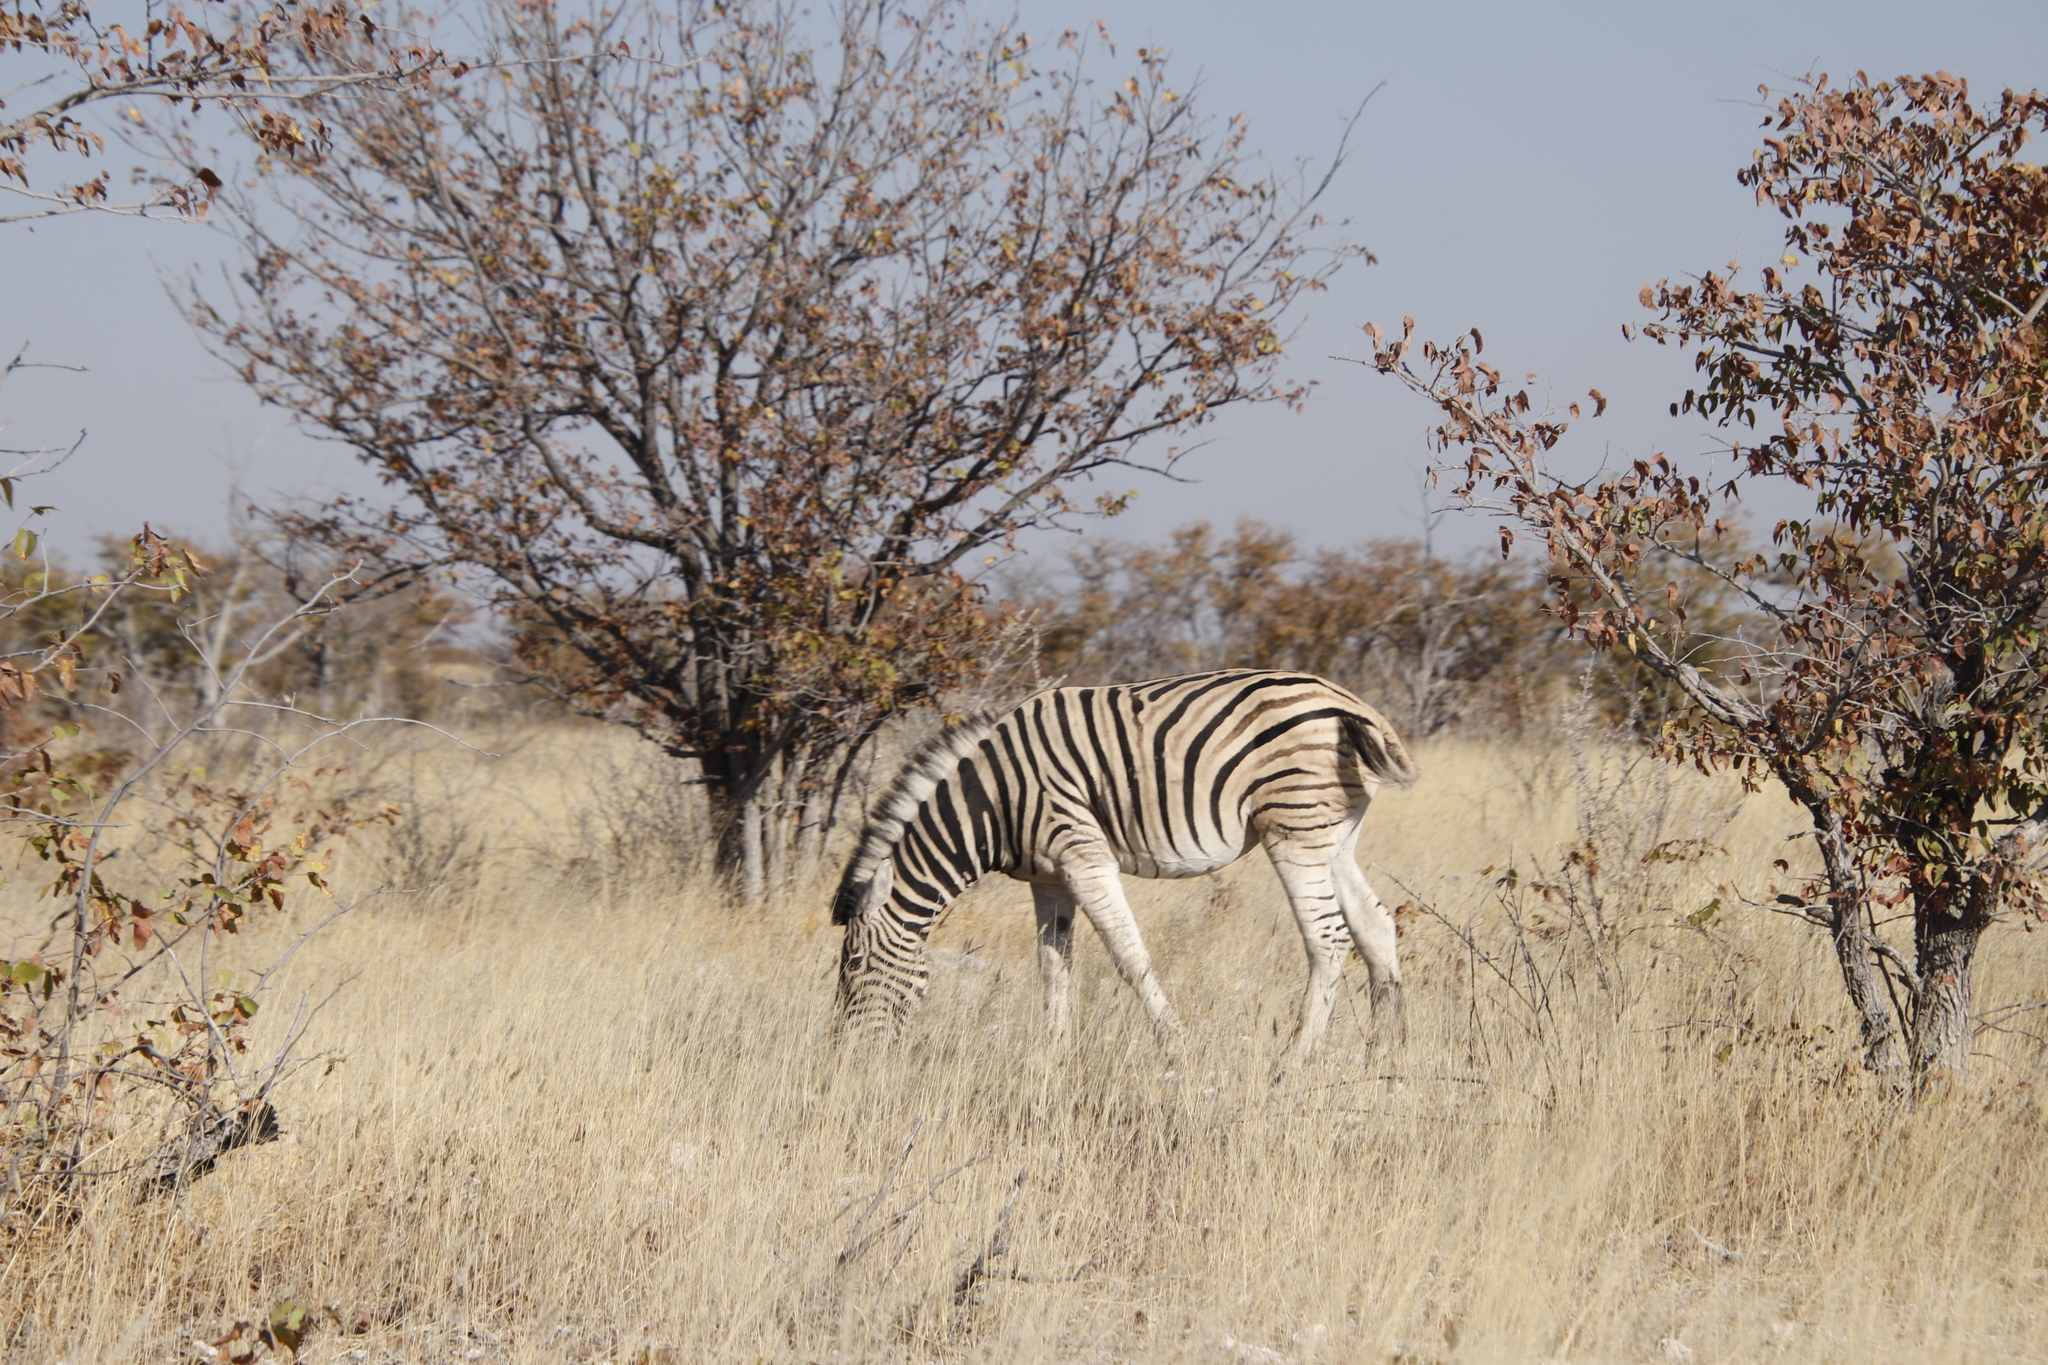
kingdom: Animalia
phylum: Chordata
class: Mammalia
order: Perissodactyla
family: Equidae
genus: Equus
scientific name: Equus quagga
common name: Plains zebra
